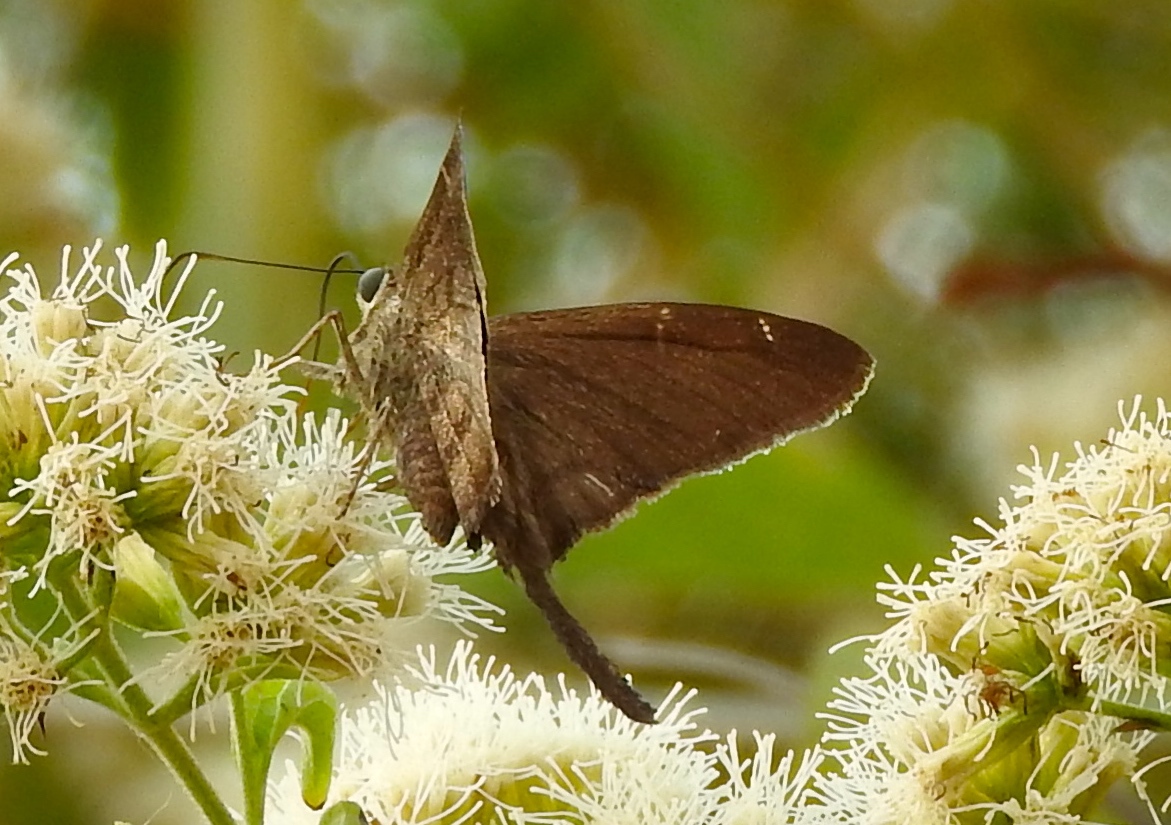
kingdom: Animalia
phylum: Arthropoda
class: Insecta
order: Lepidoptera
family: Hesperiidae
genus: Urbanus
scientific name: Urbanus procne
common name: Brown longtail
